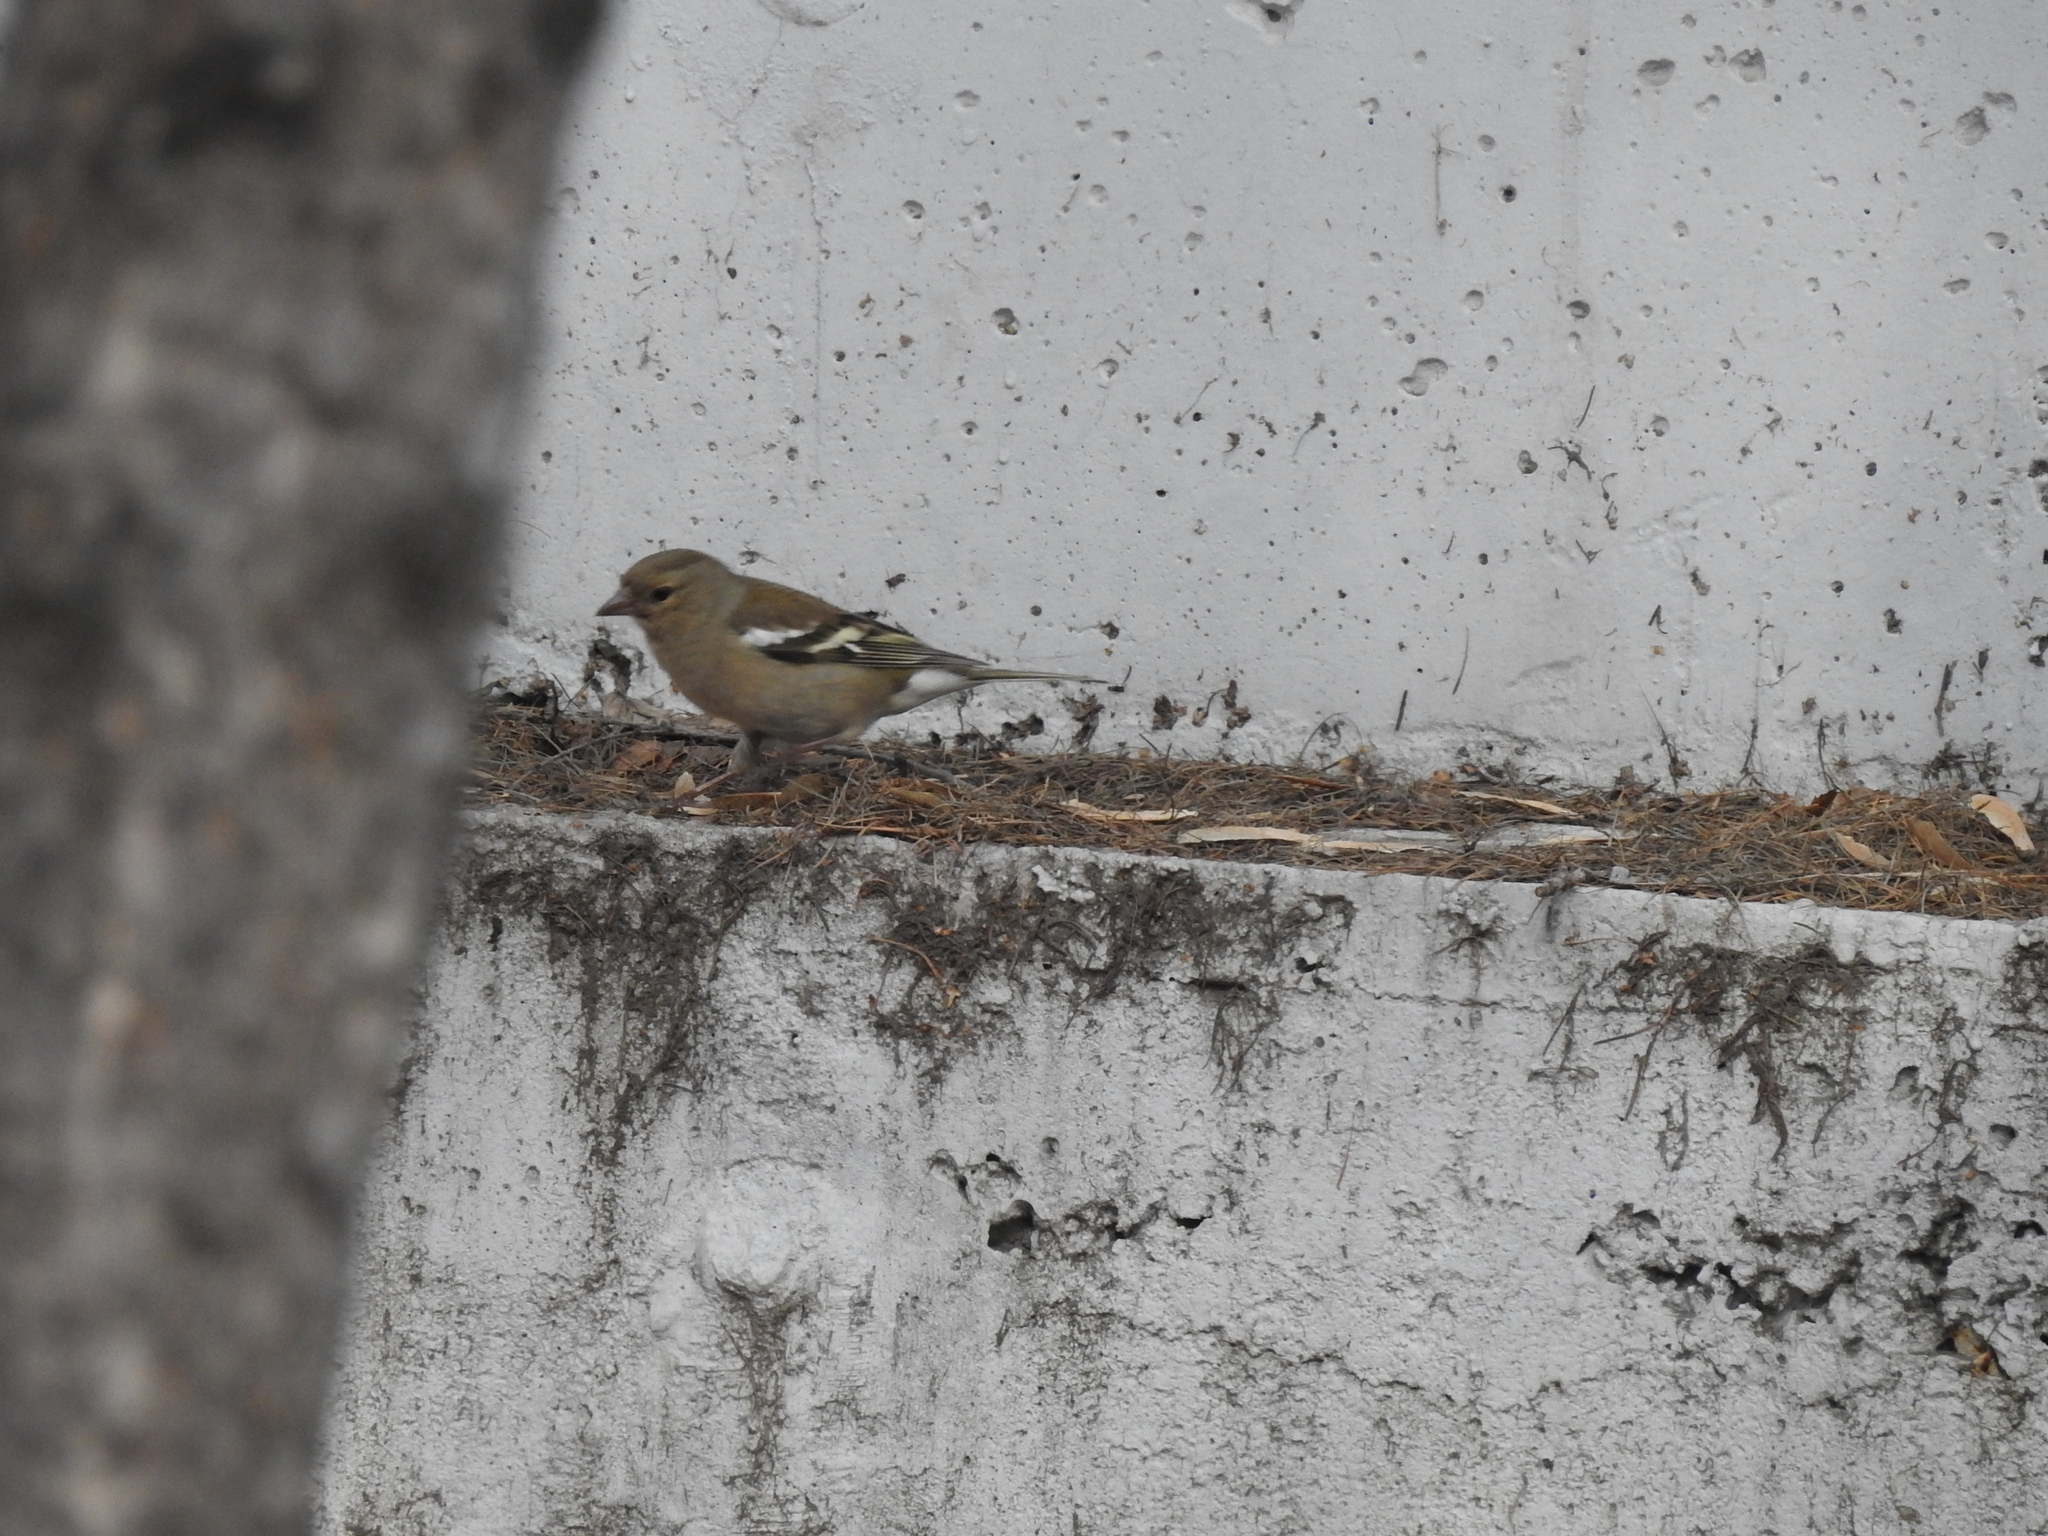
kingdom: Animalia
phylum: Chordata
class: Aves
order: Passeriformes
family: Fringillidae
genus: Fringilla
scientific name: Fringilla coelebs
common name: Common chaffinch
